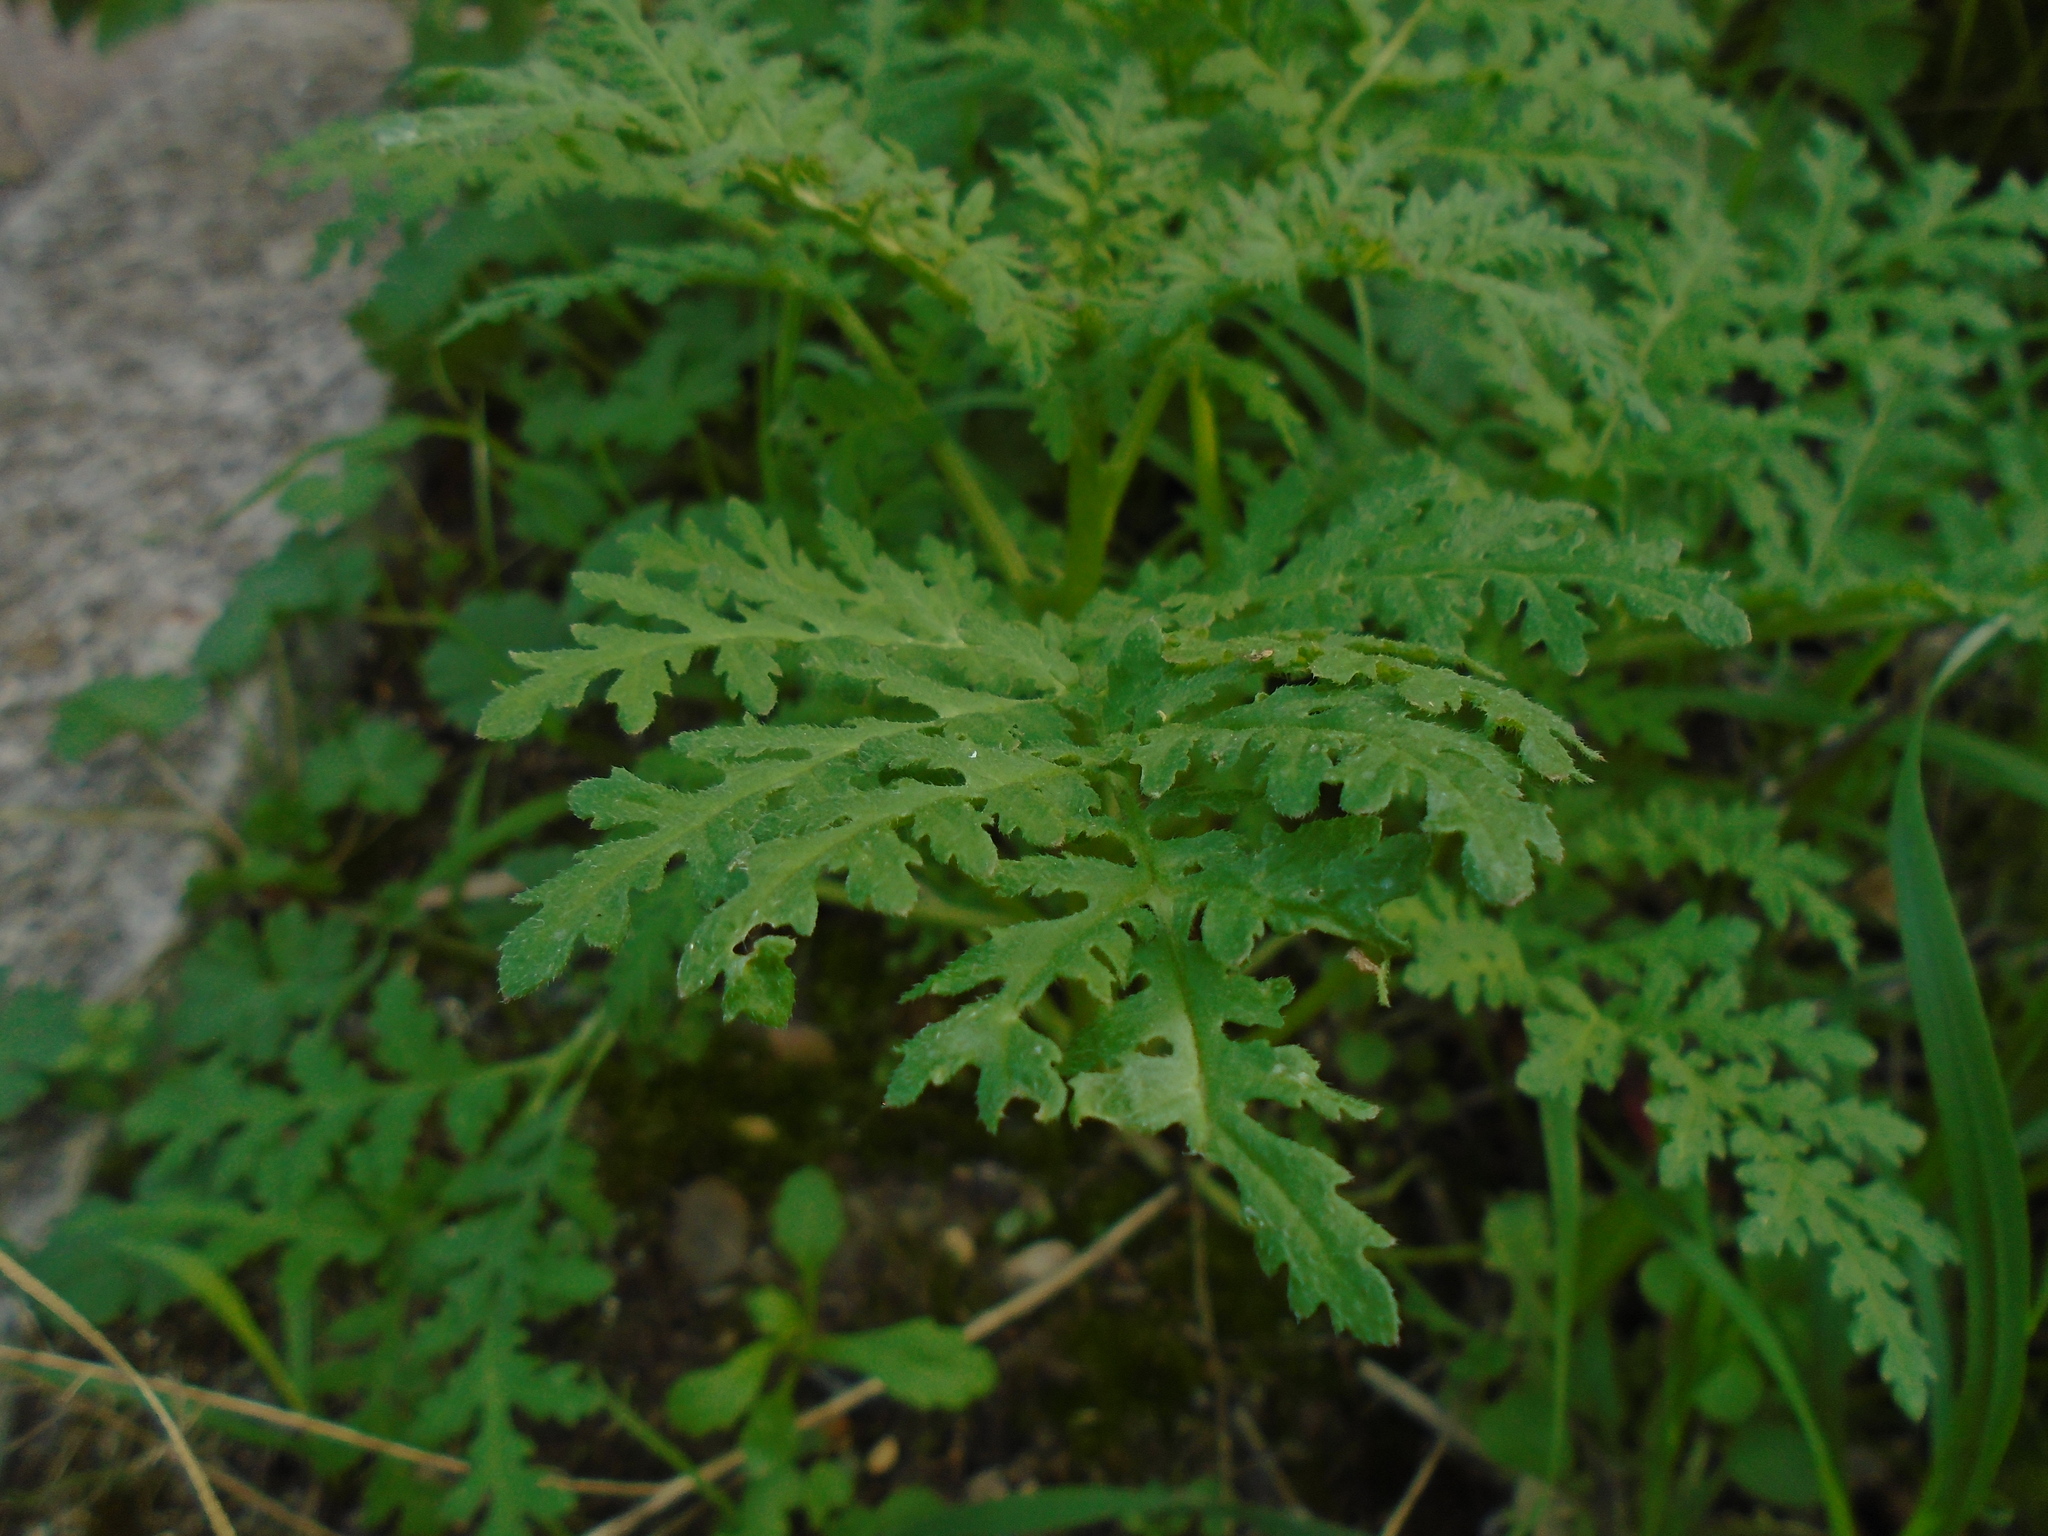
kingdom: Plantae
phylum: Tracheophyta
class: Magnoliopsida
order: Boraginales
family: Hydrophyllaceae
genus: Phacelia
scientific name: Phacelia tanacetifolia
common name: Phacelia
